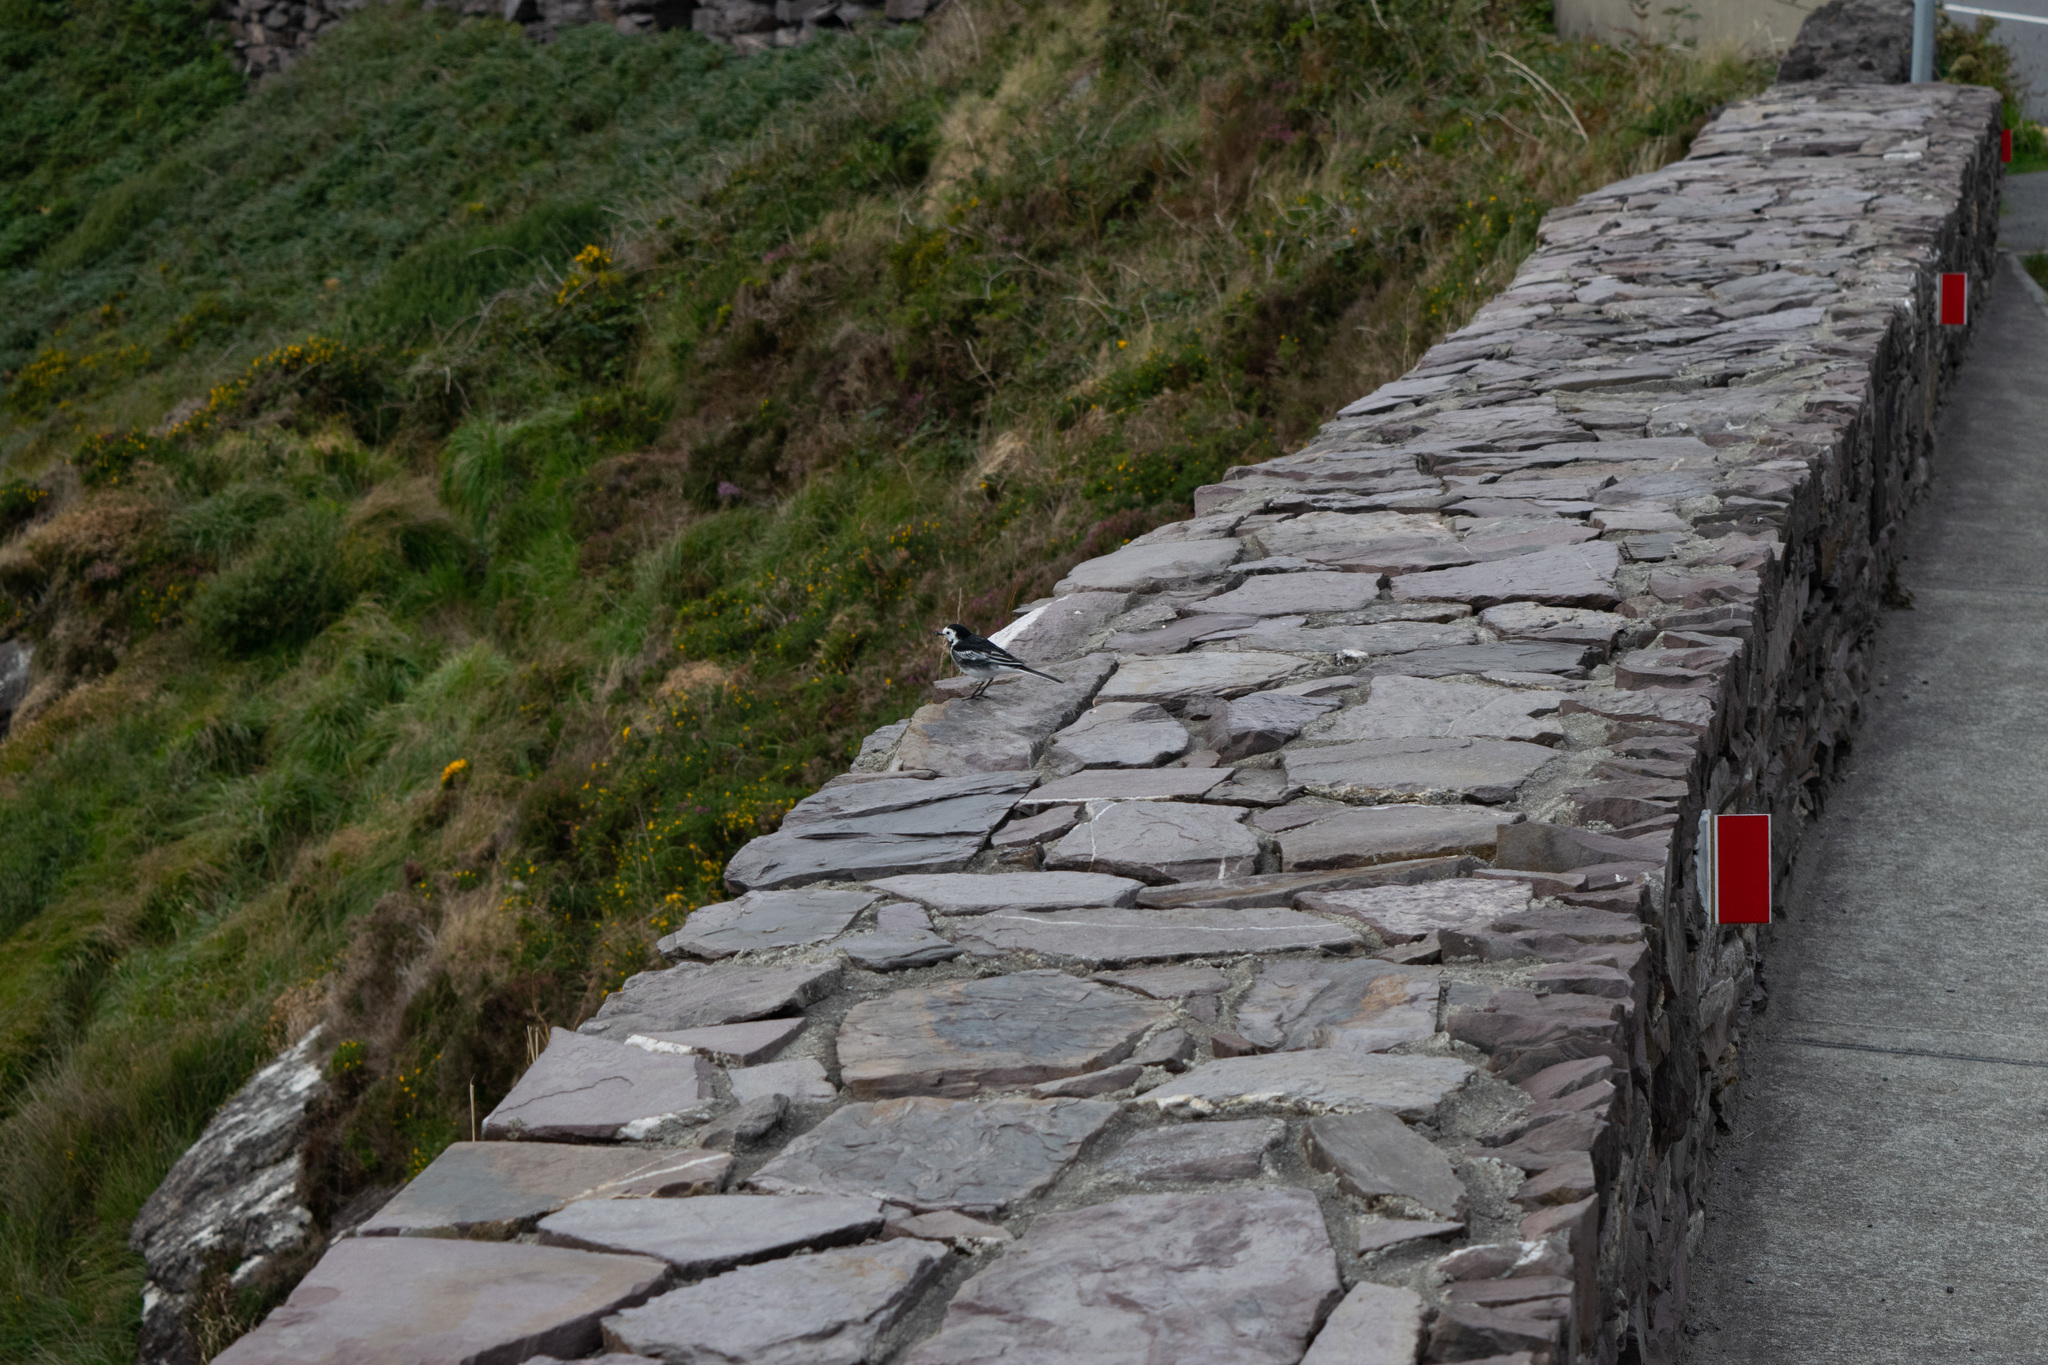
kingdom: Animalia
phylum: Chordata
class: Aves
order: Passeriformes
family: Motacillidae
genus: Motacilla
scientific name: Motacilla alba
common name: White wagtail
